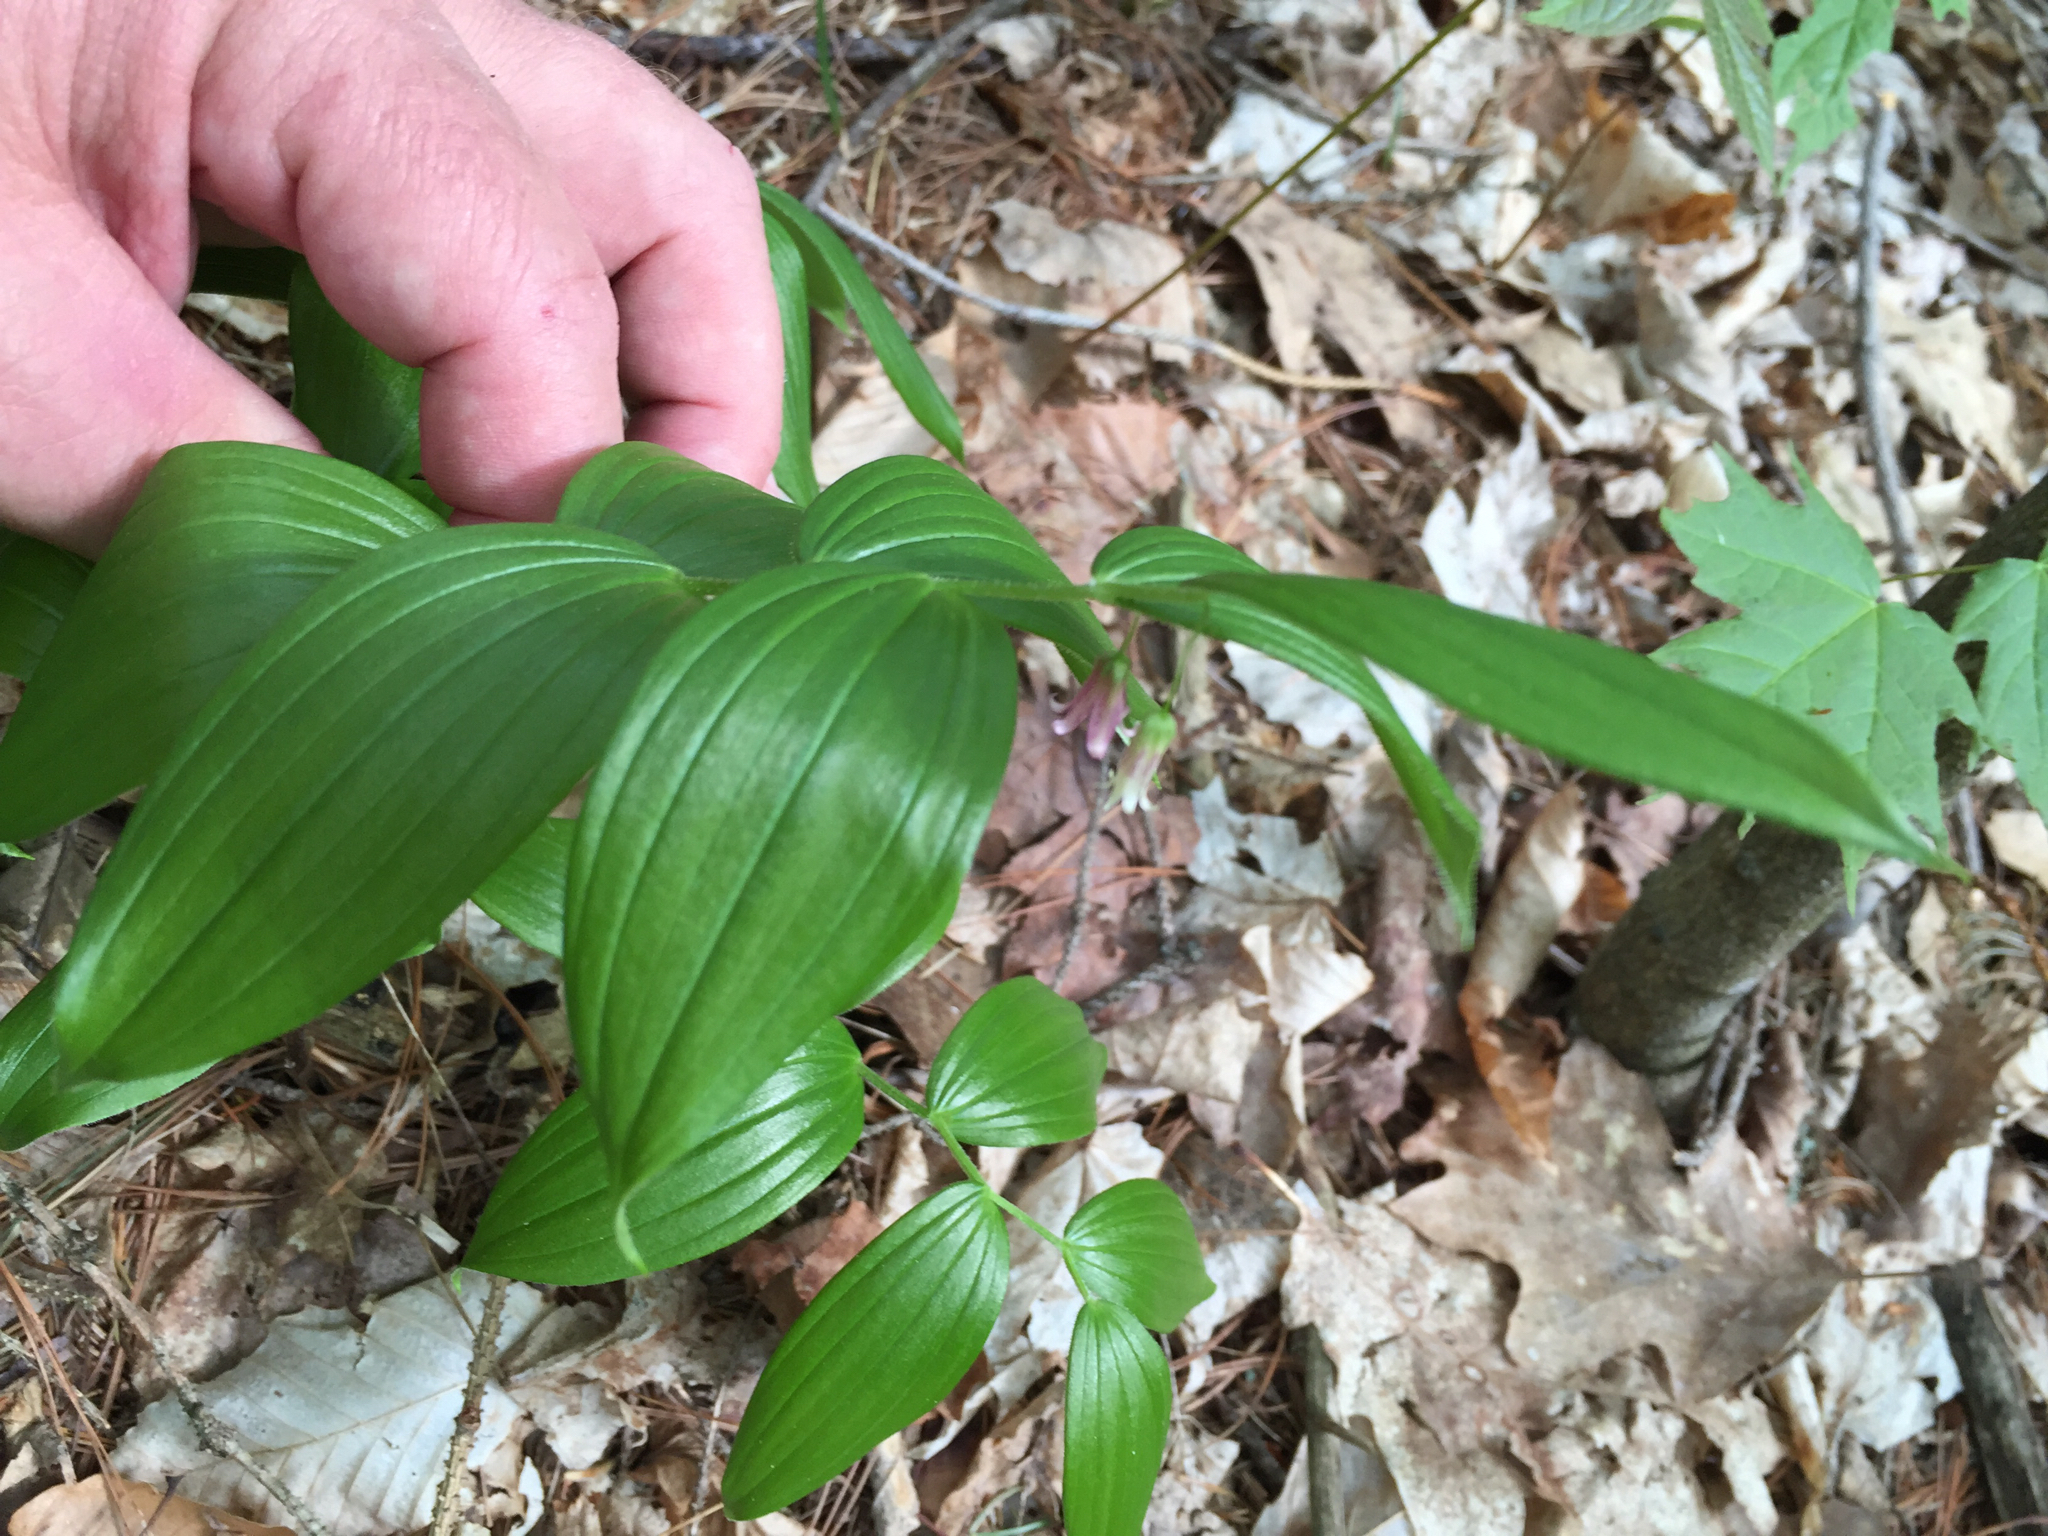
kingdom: Plantae
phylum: Tracheophyta
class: Liliopsida
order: Liliales
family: Liliaceae
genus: Streptopus
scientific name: Streptopus lanceolatus
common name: Rose mandarin
